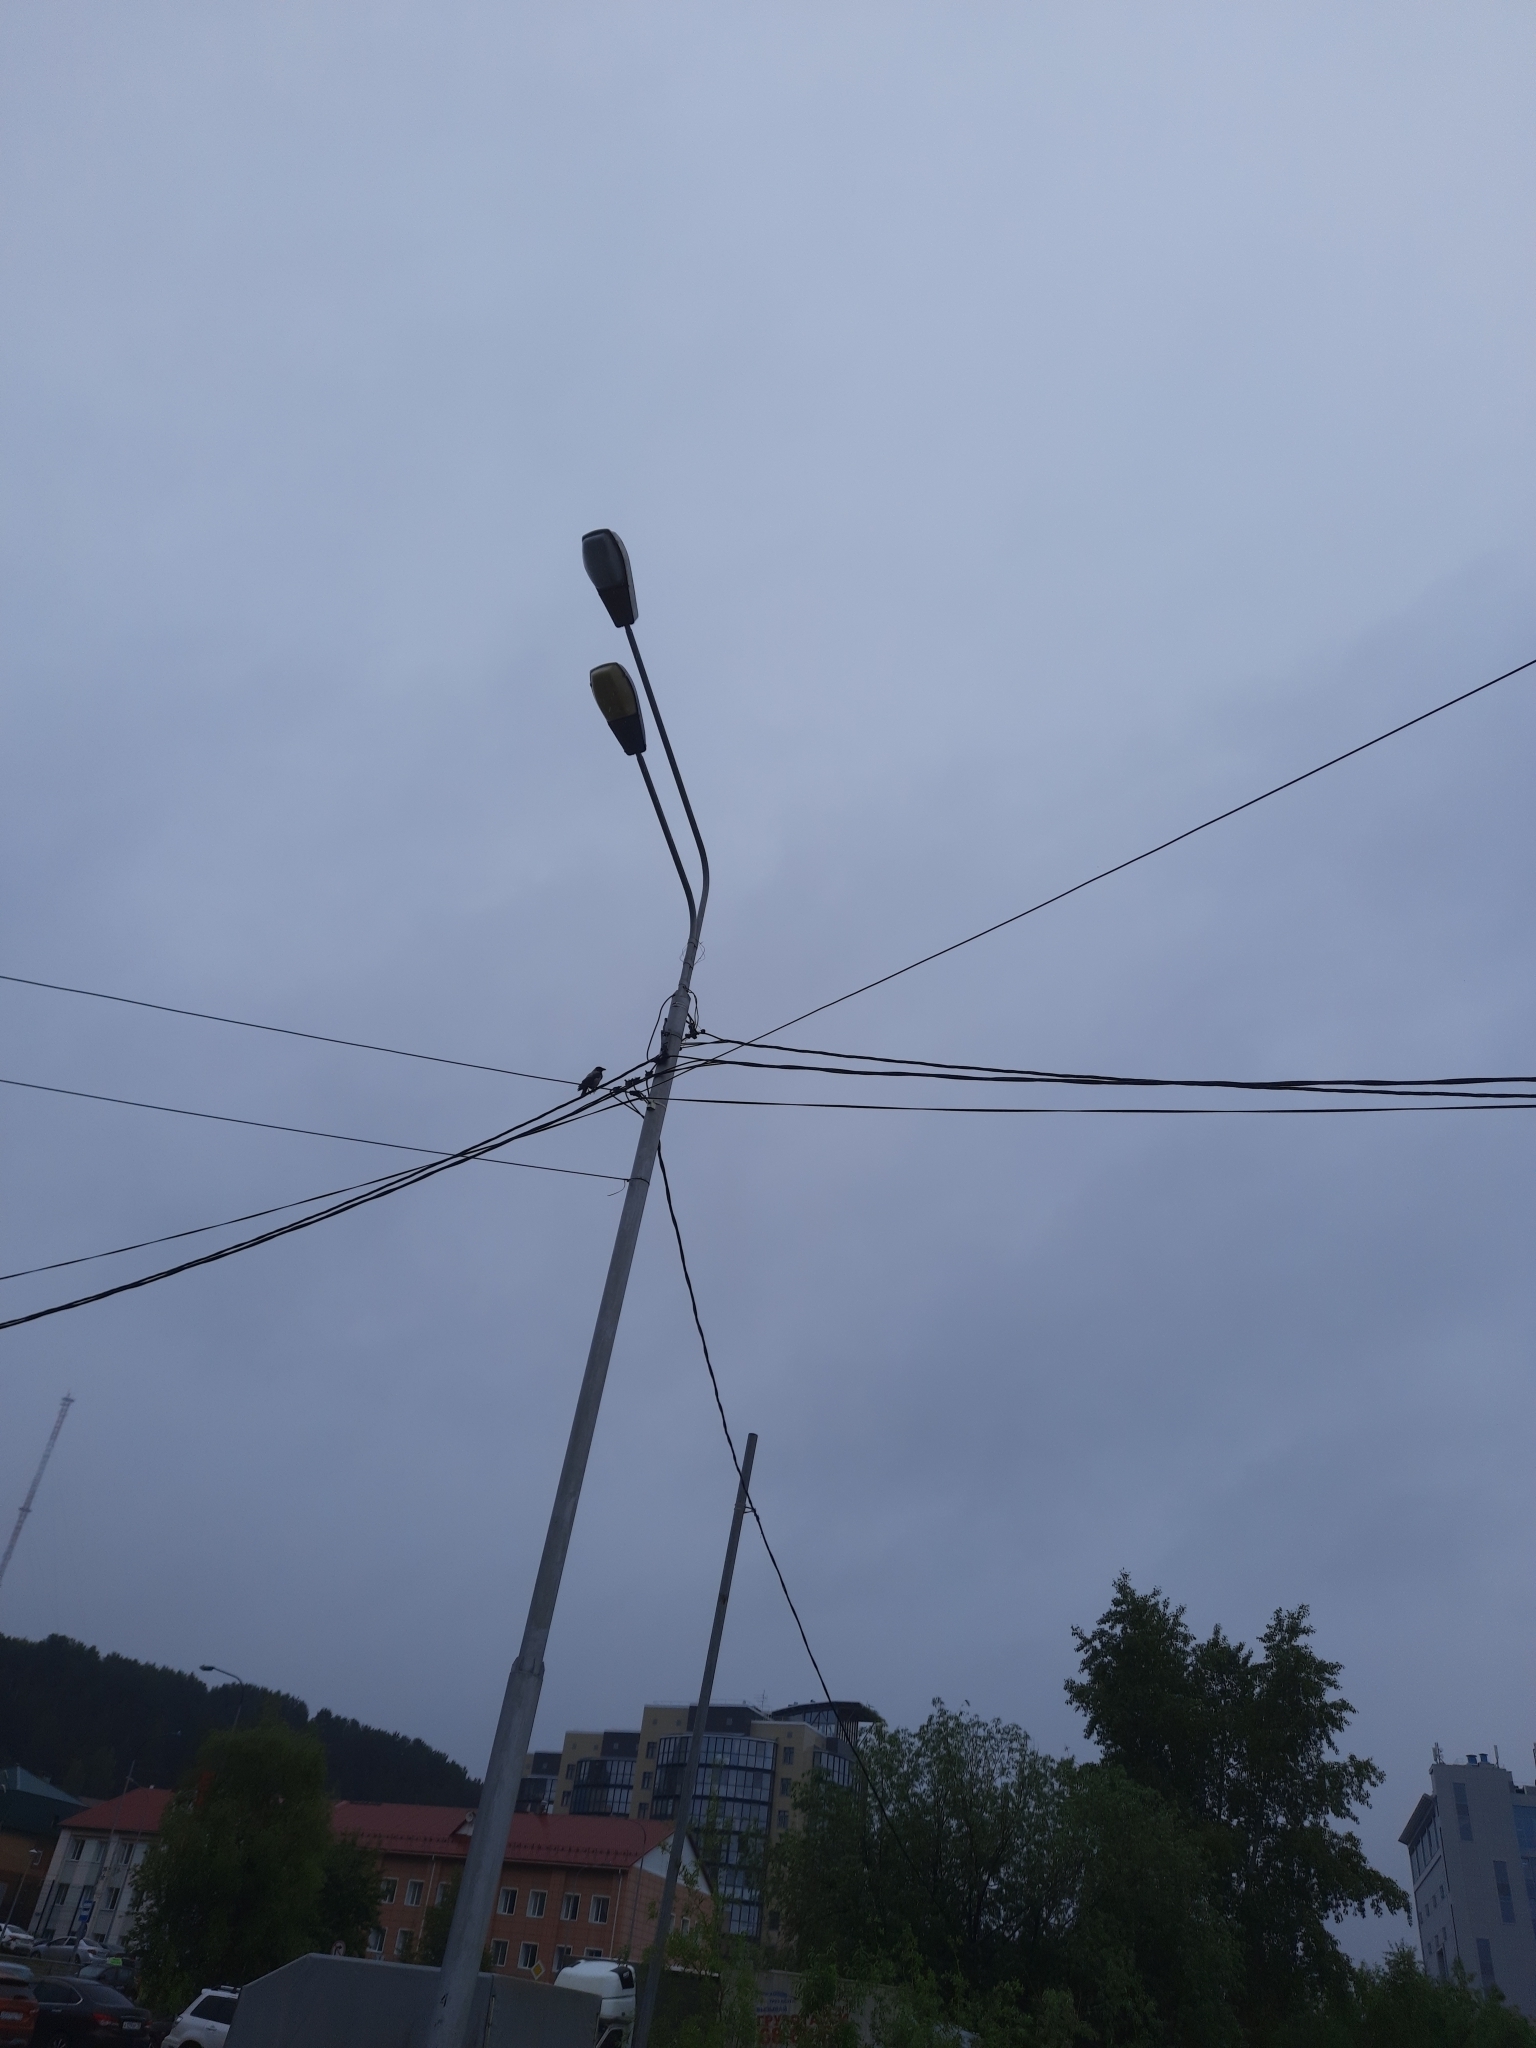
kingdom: Animalia
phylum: Chordata
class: Aves
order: Passeriformes
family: Corvidae
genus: Corvus
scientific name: Corvus cornix
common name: Hooded crow
